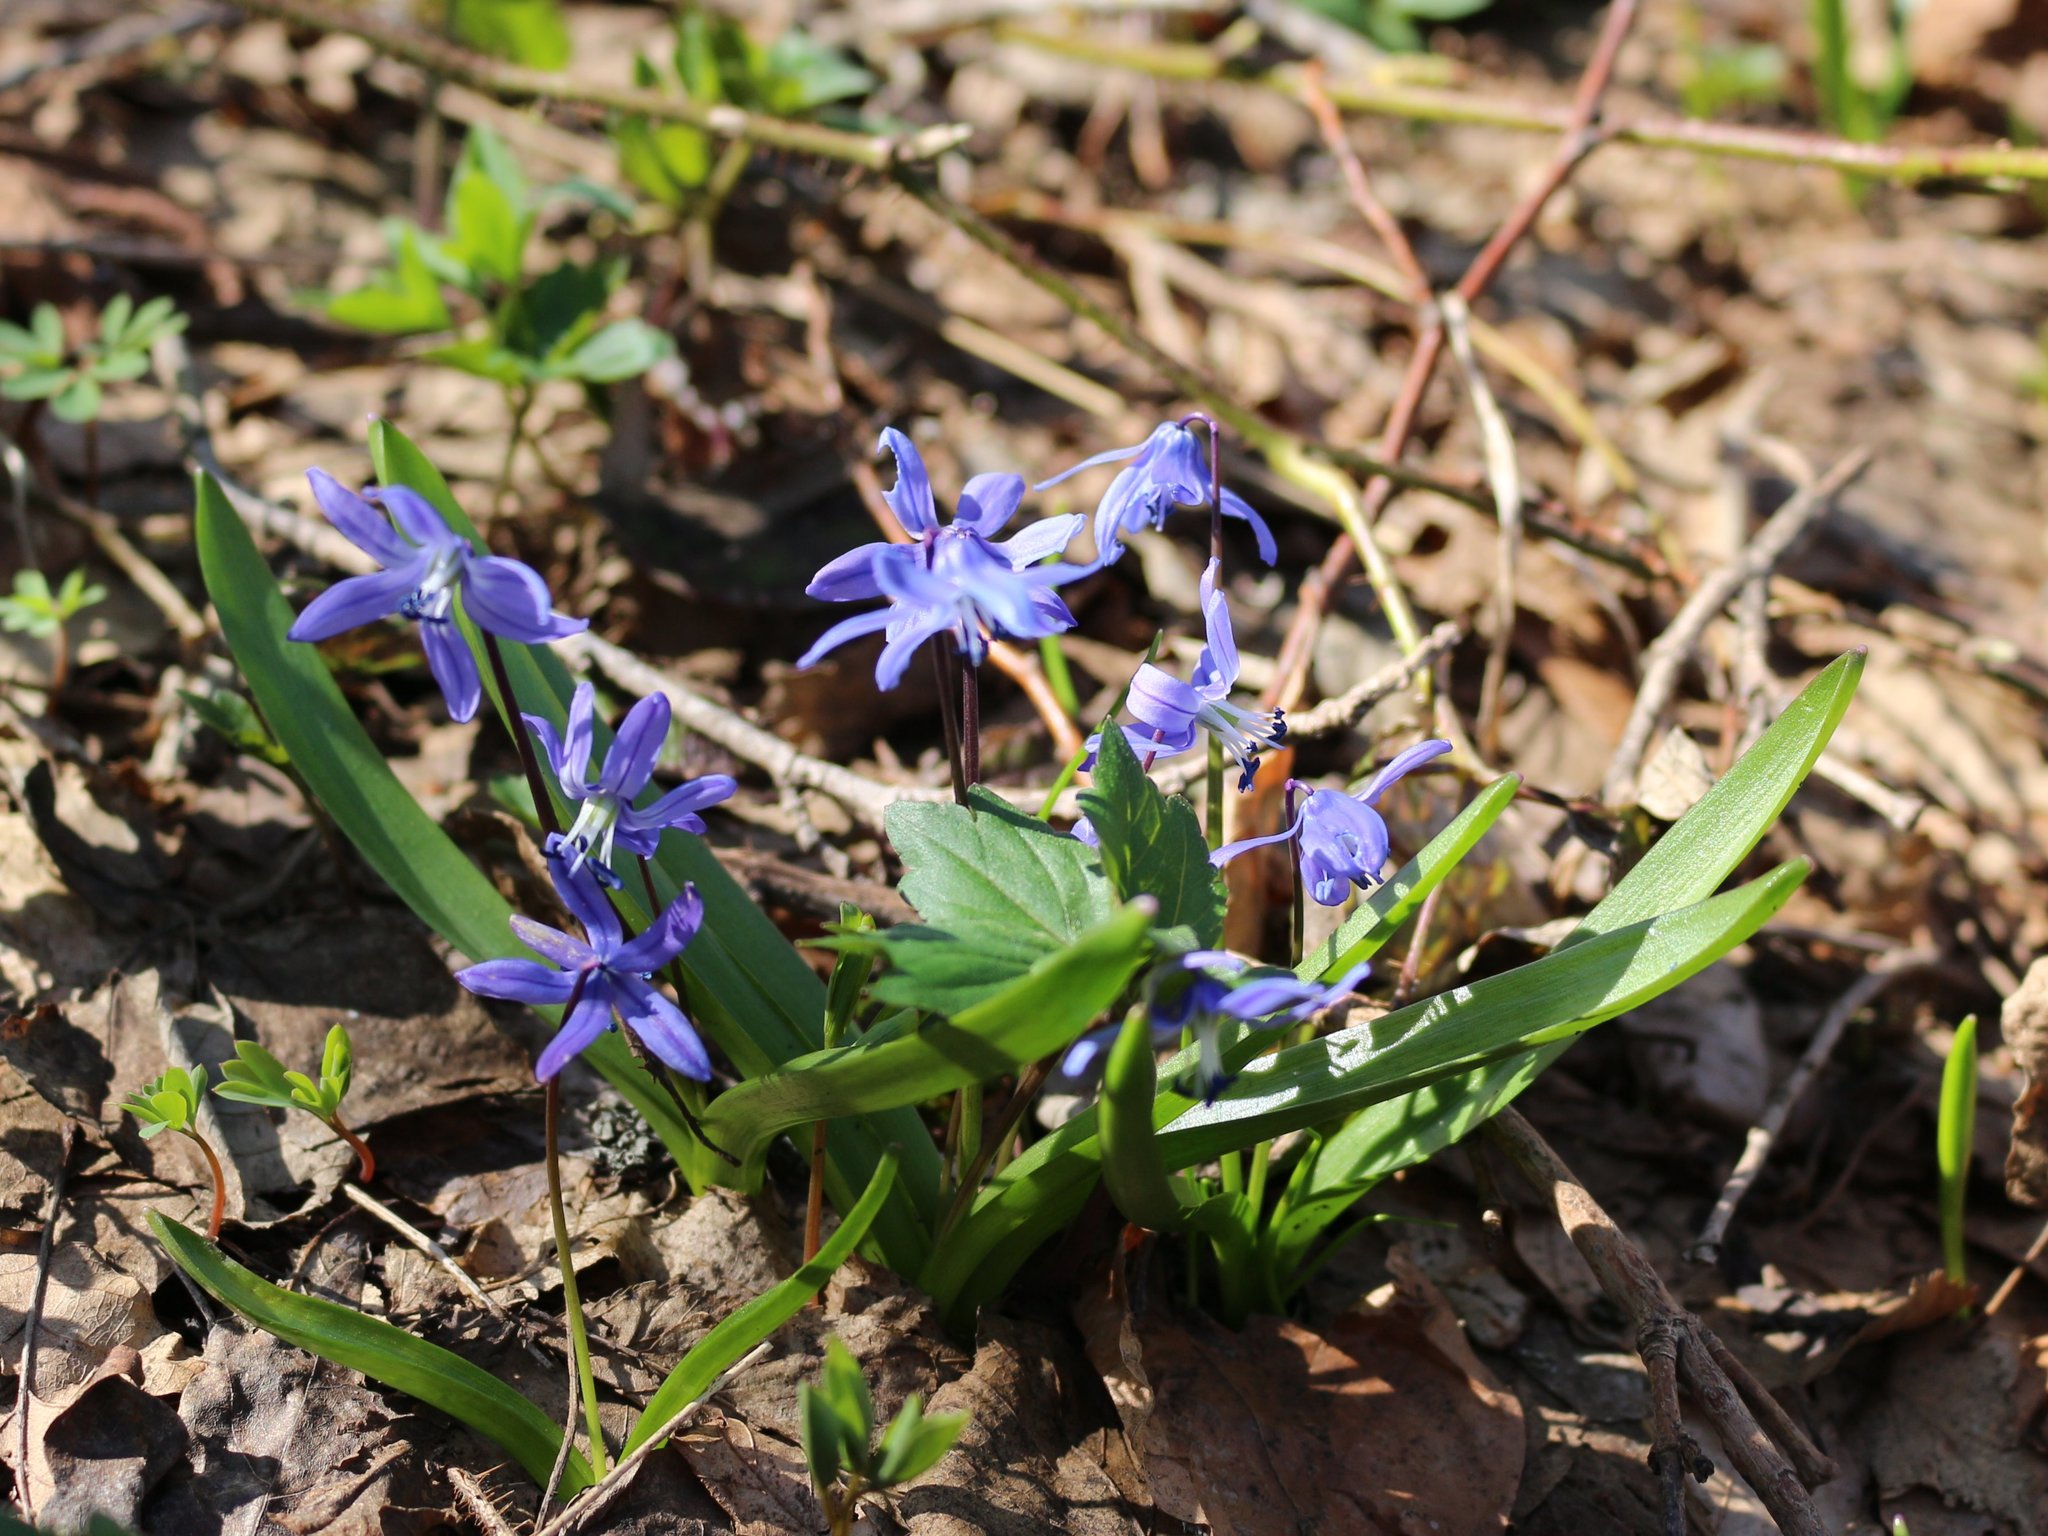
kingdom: Plantae
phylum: Tracheophyta
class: Liliopsida
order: Asparagales
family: Asparagaceae
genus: Scilla
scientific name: Scilla siberica
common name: Siberian squill
